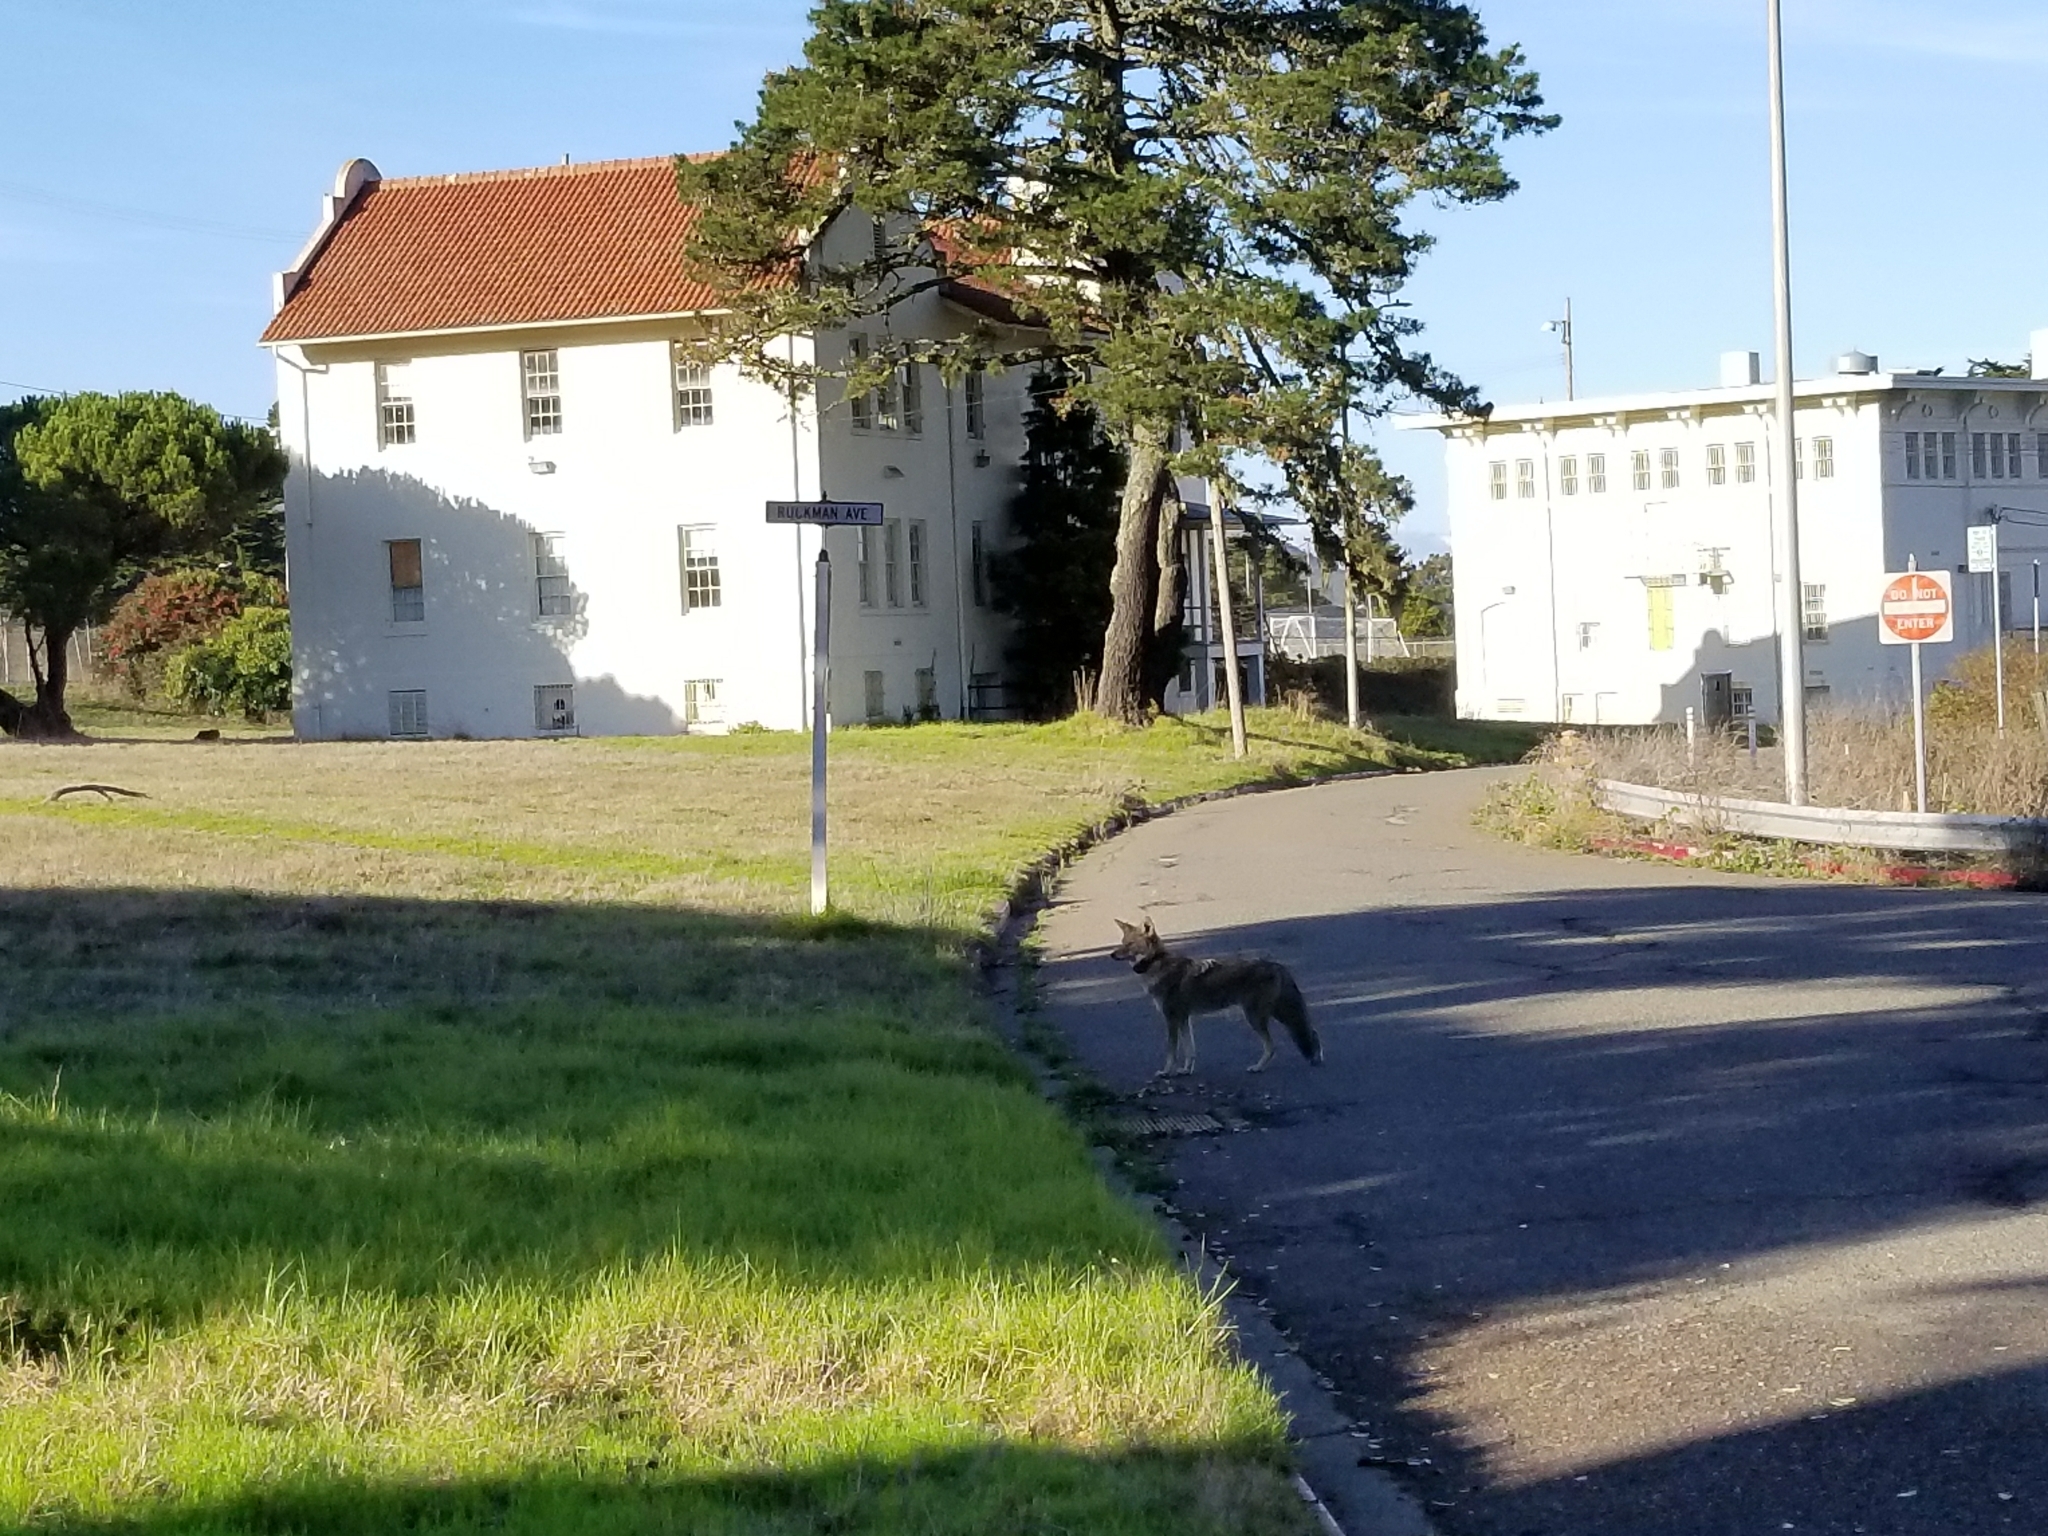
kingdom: Animalia
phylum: Chordata
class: Mammalia
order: Carnivora
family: Canidae
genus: Canis
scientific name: Canis latrans
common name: Coyote
